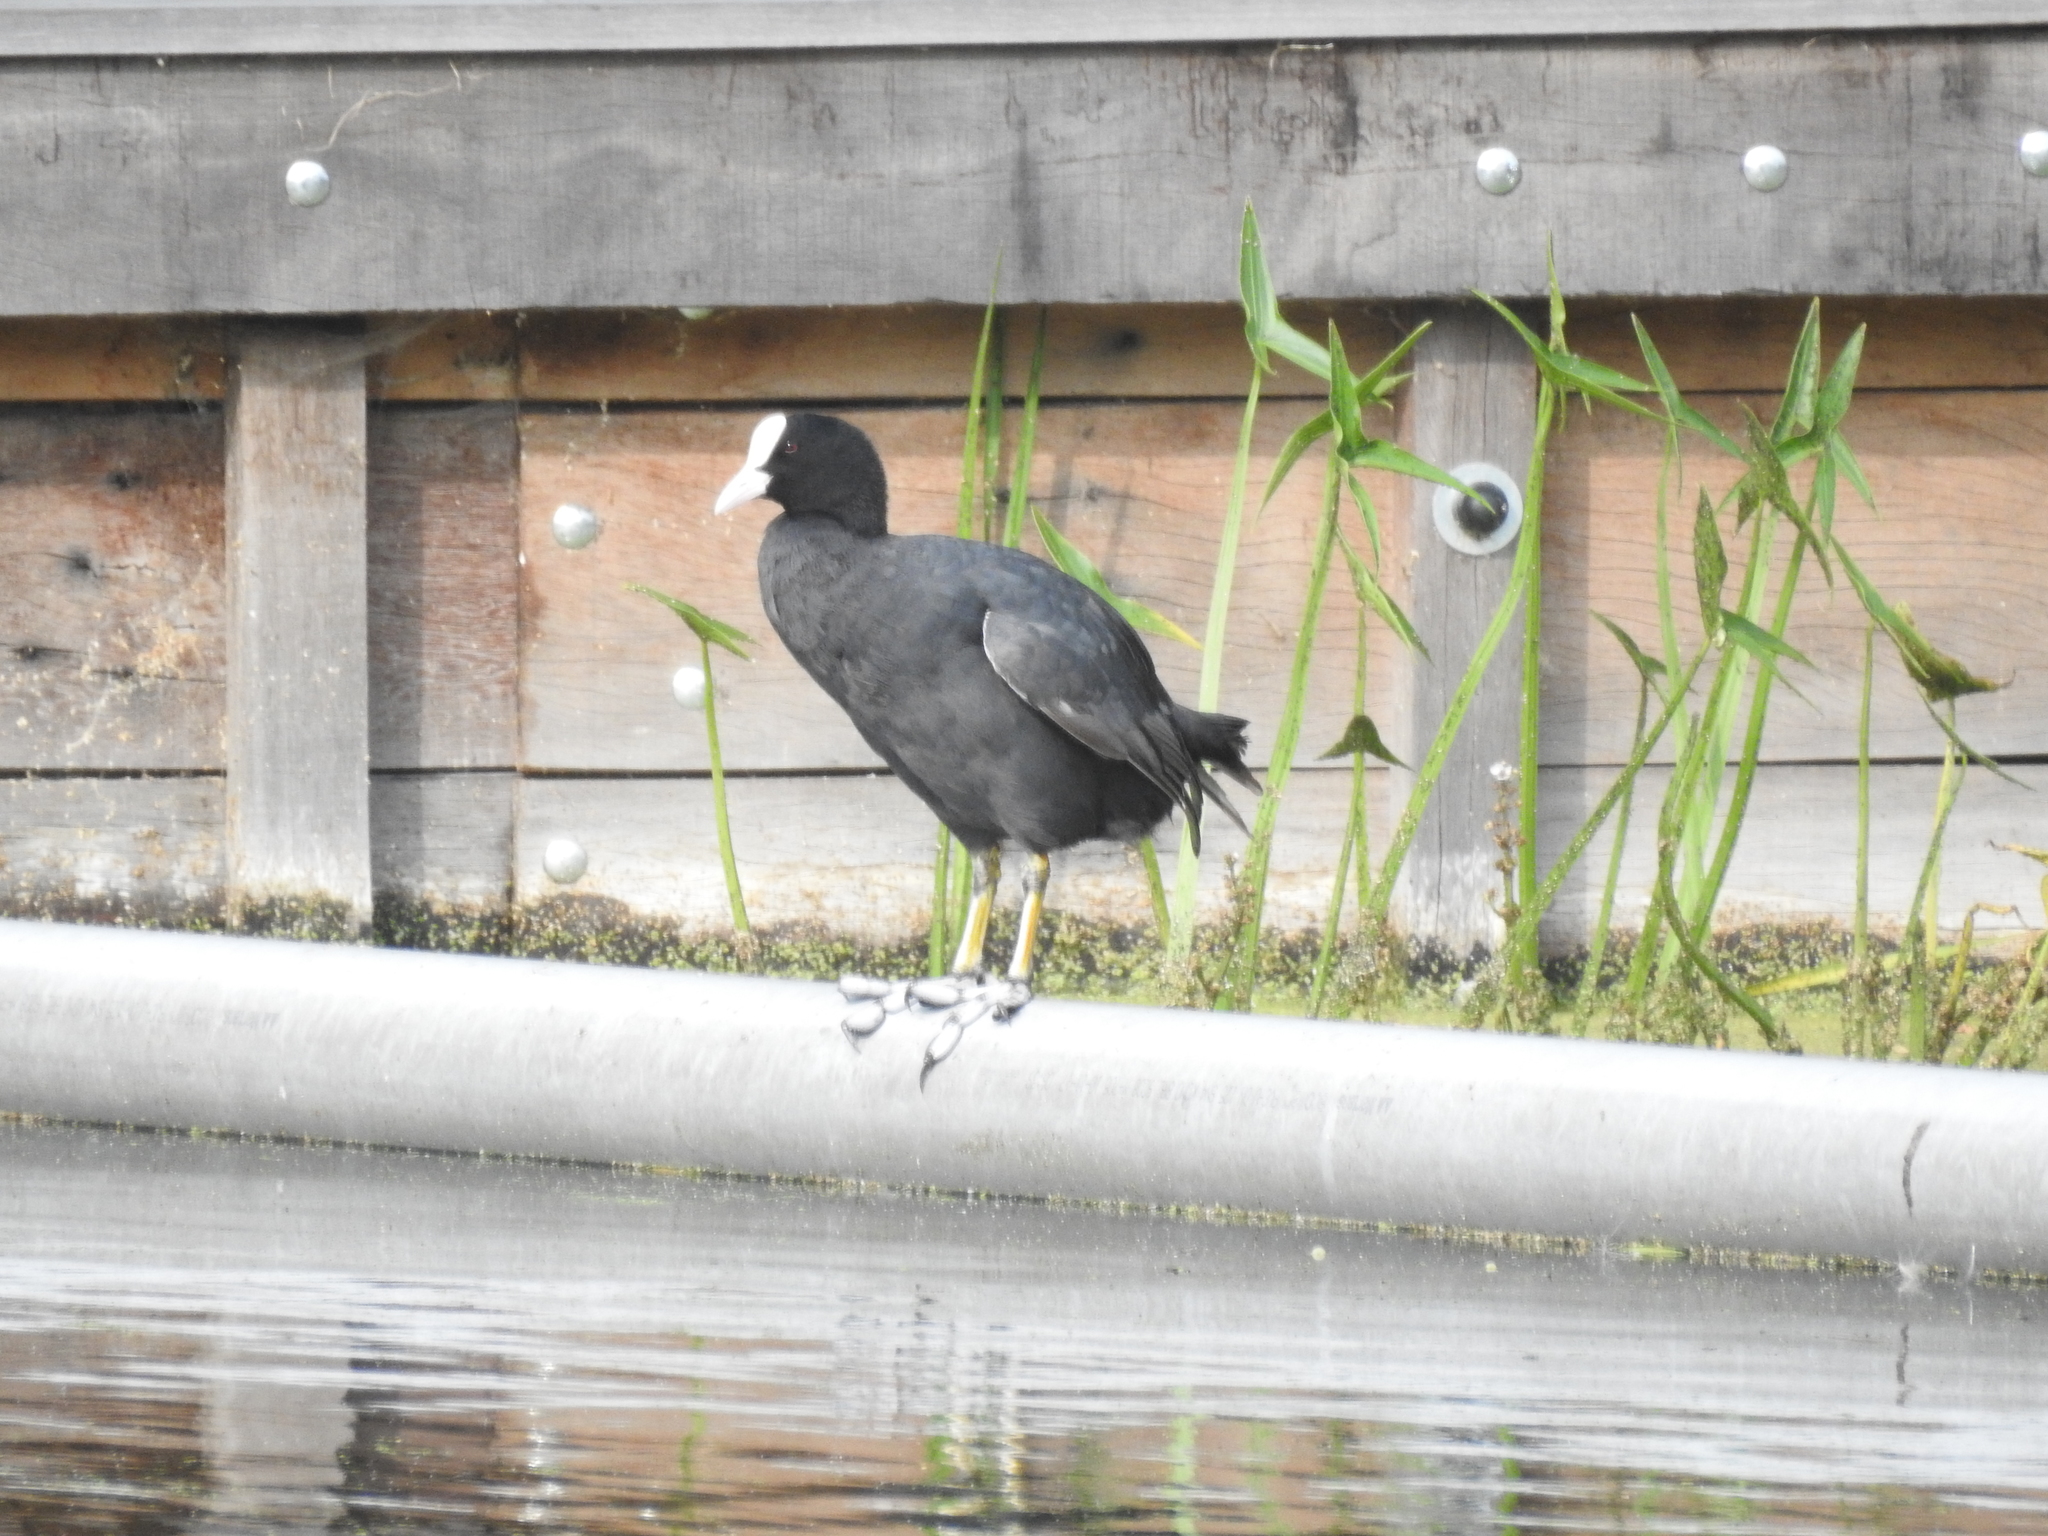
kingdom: Animalia
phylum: Chordata
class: Aves
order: Gruiformes
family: Rallidae
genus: Fulica
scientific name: Fulica atra
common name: Eurasian coot
